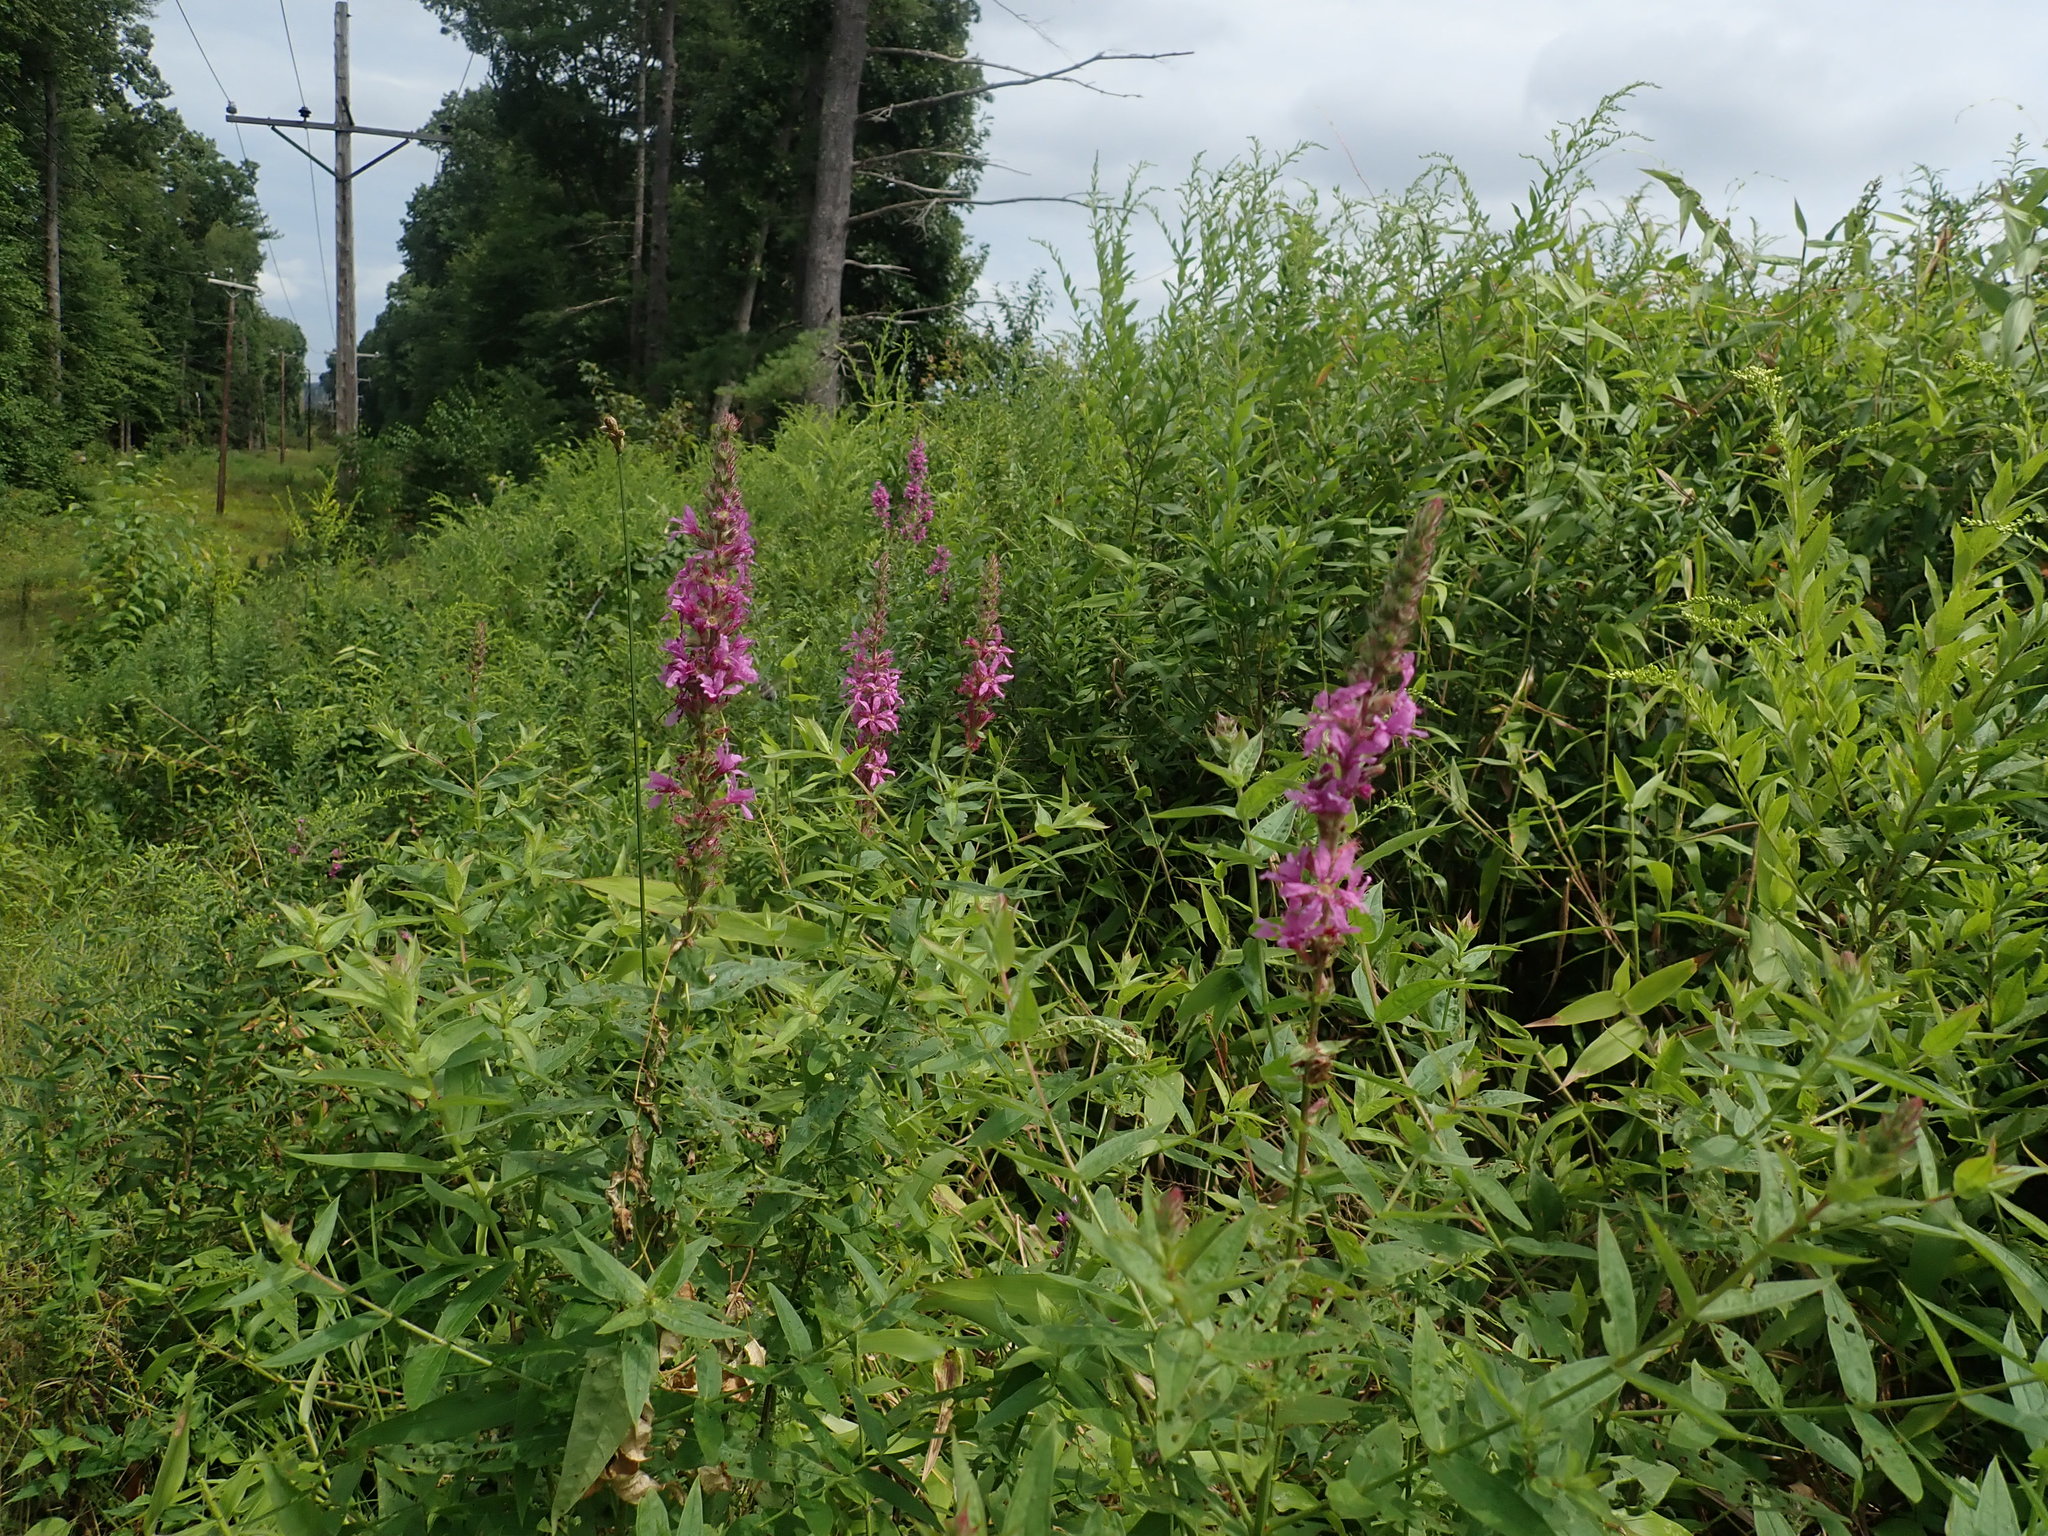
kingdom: Plantae
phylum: Tracheophyta
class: Magnoliopsida
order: Myrtales
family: Lythraceae
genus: Lythrum
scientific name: Lythrum salicaria
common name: Purple loosestrife
